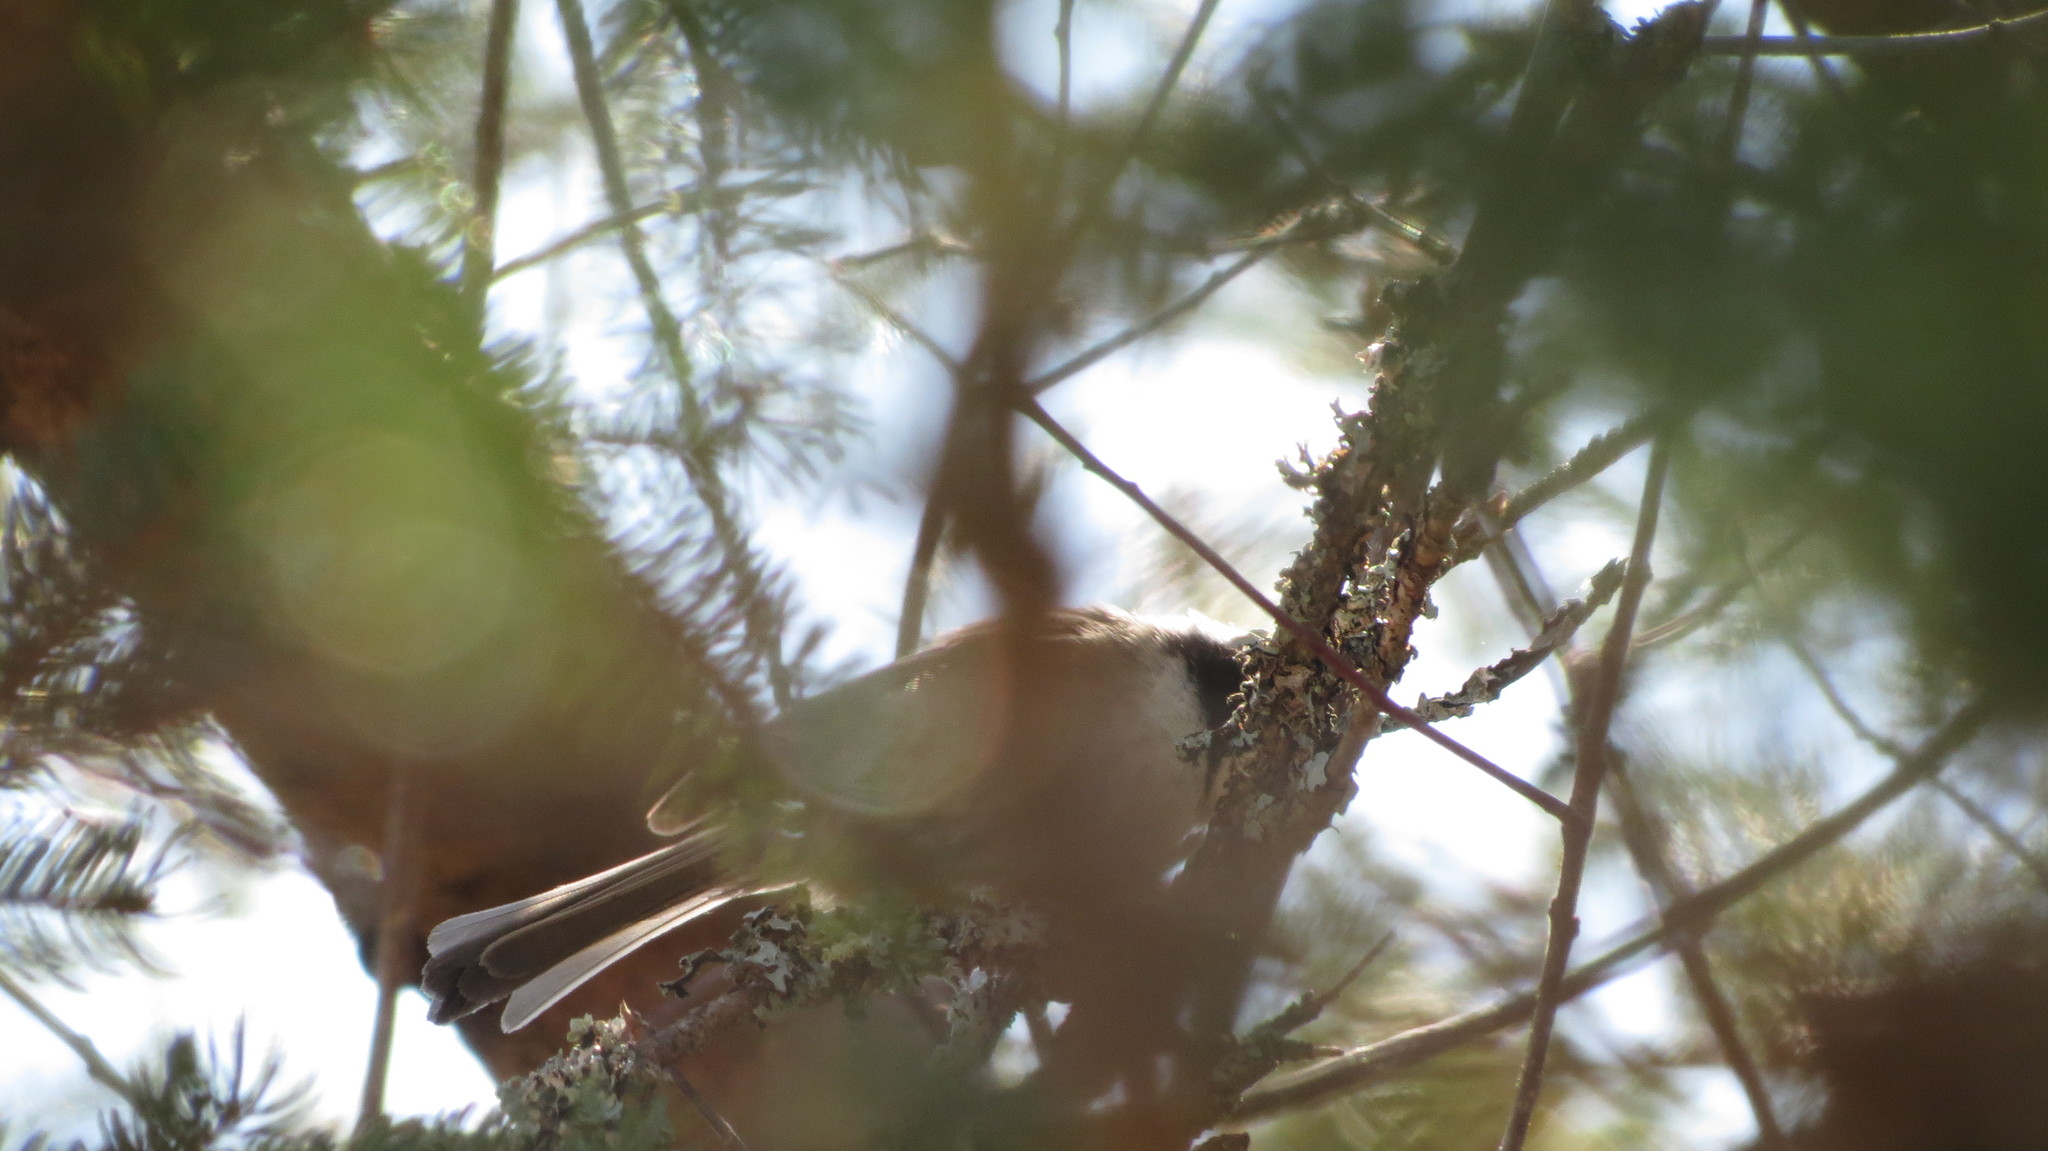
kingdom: Animalia
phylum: Chordata
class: Aves
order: Passeriformes
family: Paridae
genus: Poecile
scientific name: Poecile atricapillus
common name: Black-capped chickadee
